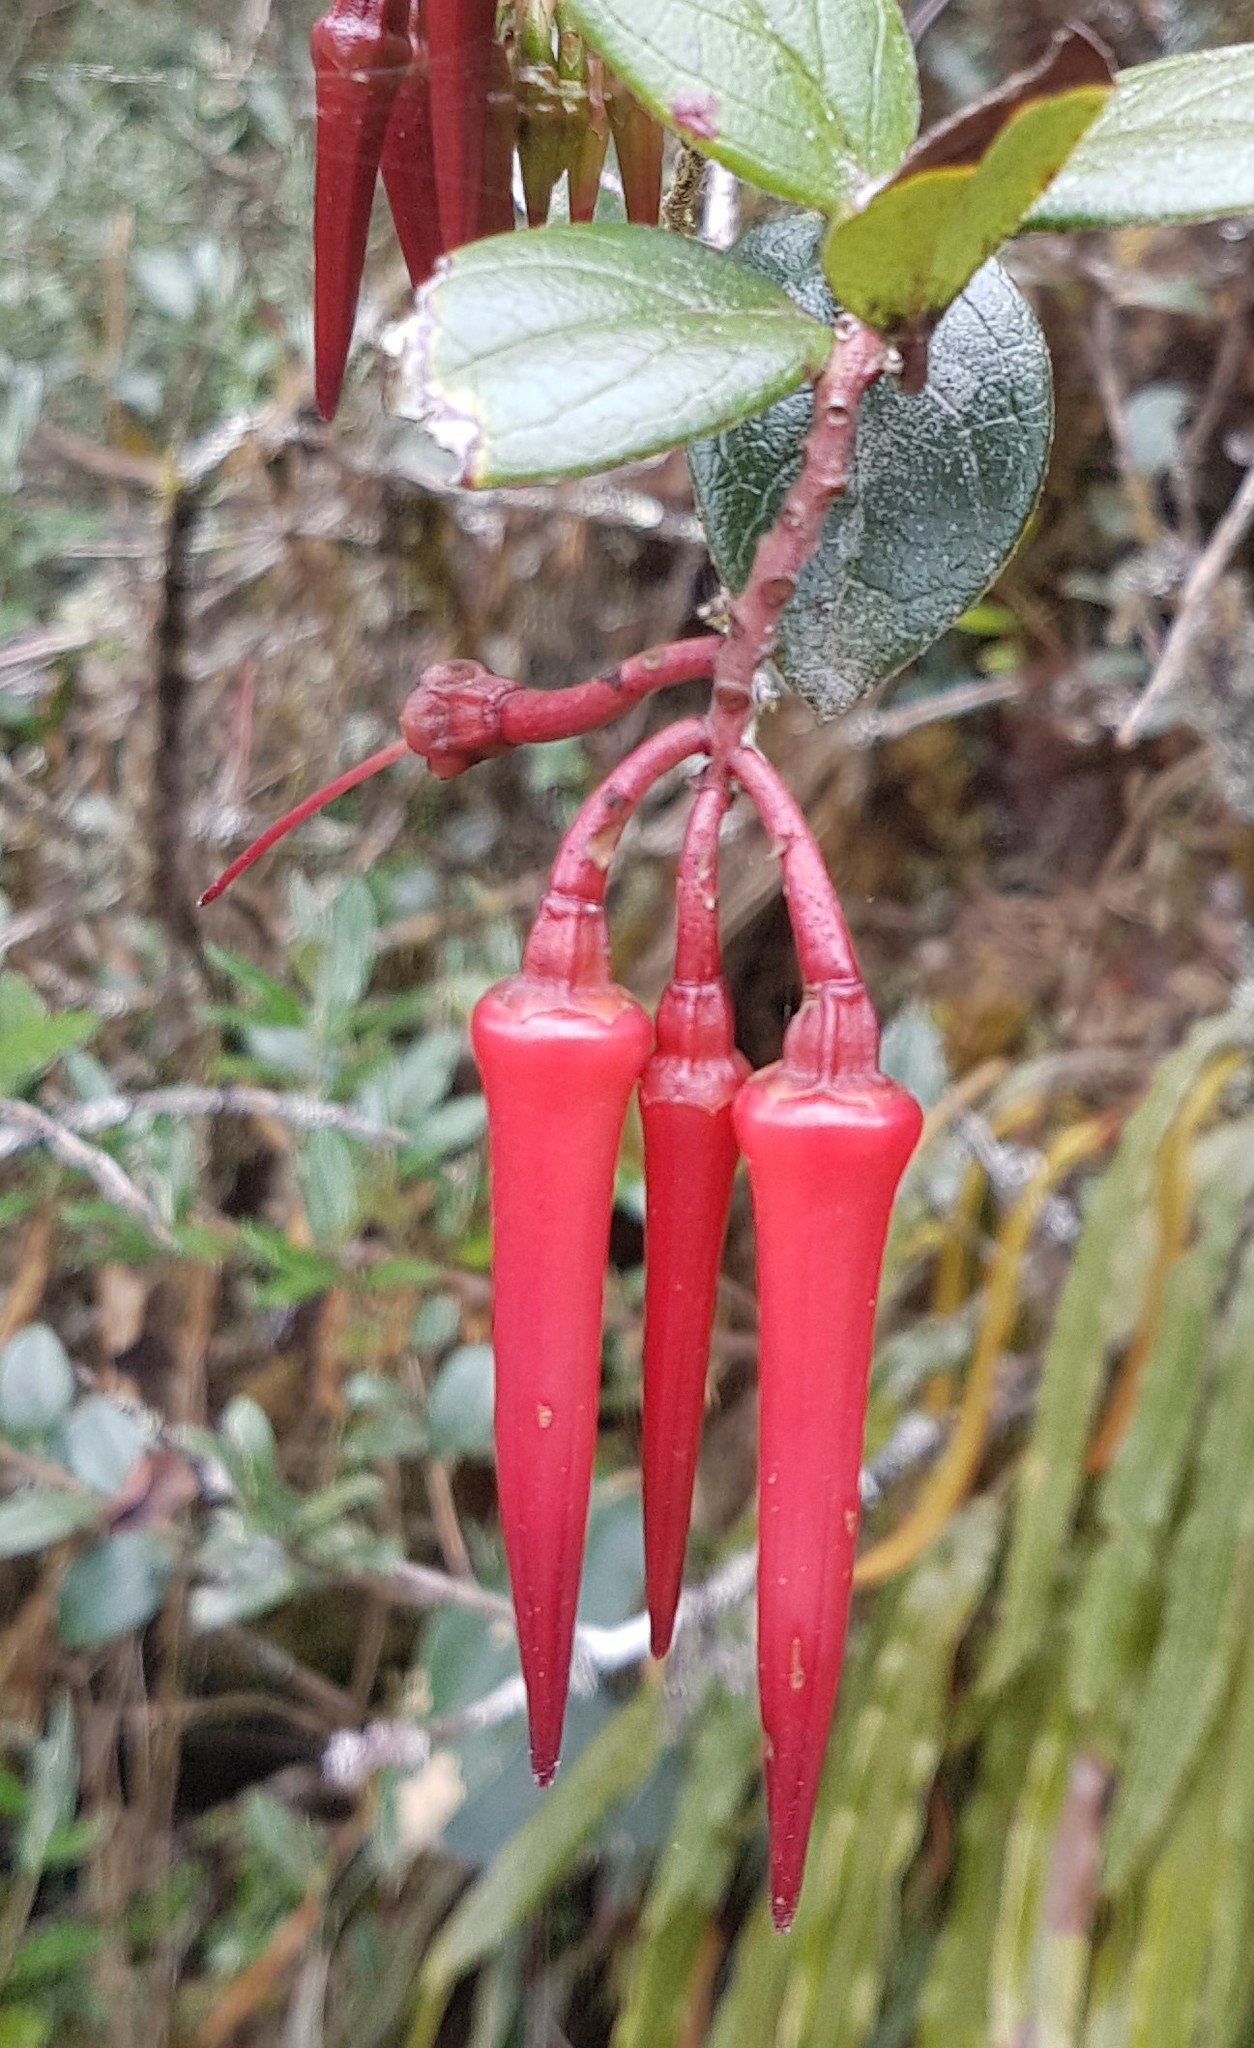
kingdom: Plantae
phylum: Tracheophyta
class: Magnoliopsida
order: Ericales
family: Ericaceae
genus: Ceratostema
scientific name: Ceratostema alatum
